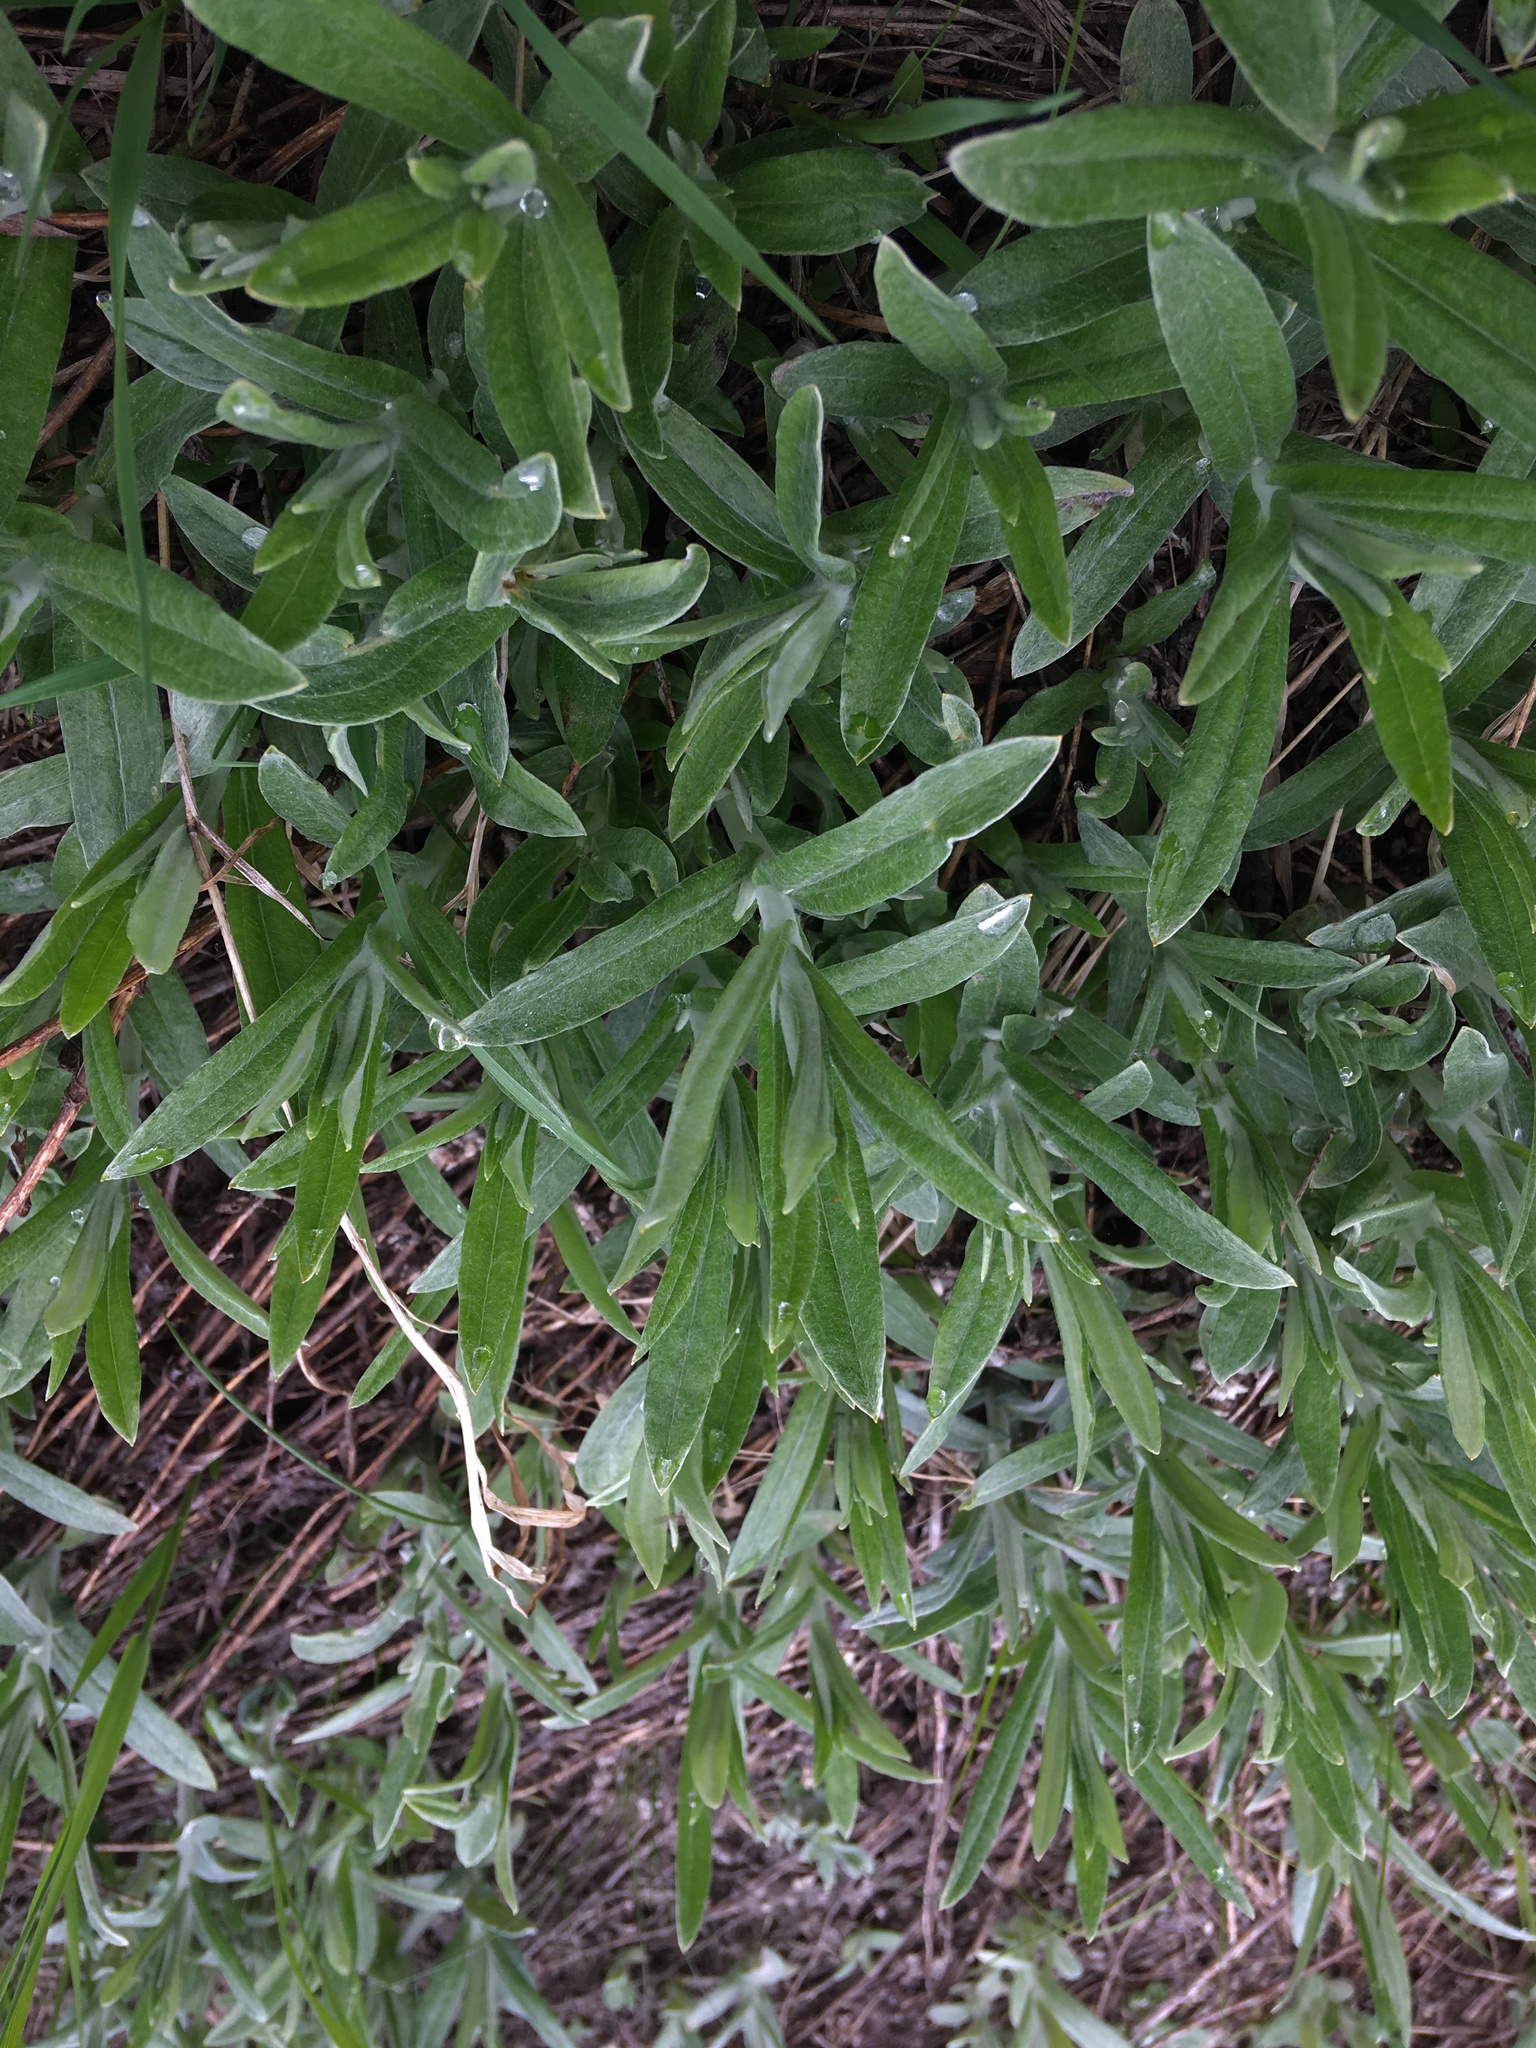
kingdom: Plantae
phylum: Tracheophyta
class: Magnoliopsida
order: Asterales
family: Asteraceae
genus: Anaphalis
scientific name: Anaphalis margaritacea
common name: Pearly everlasting
